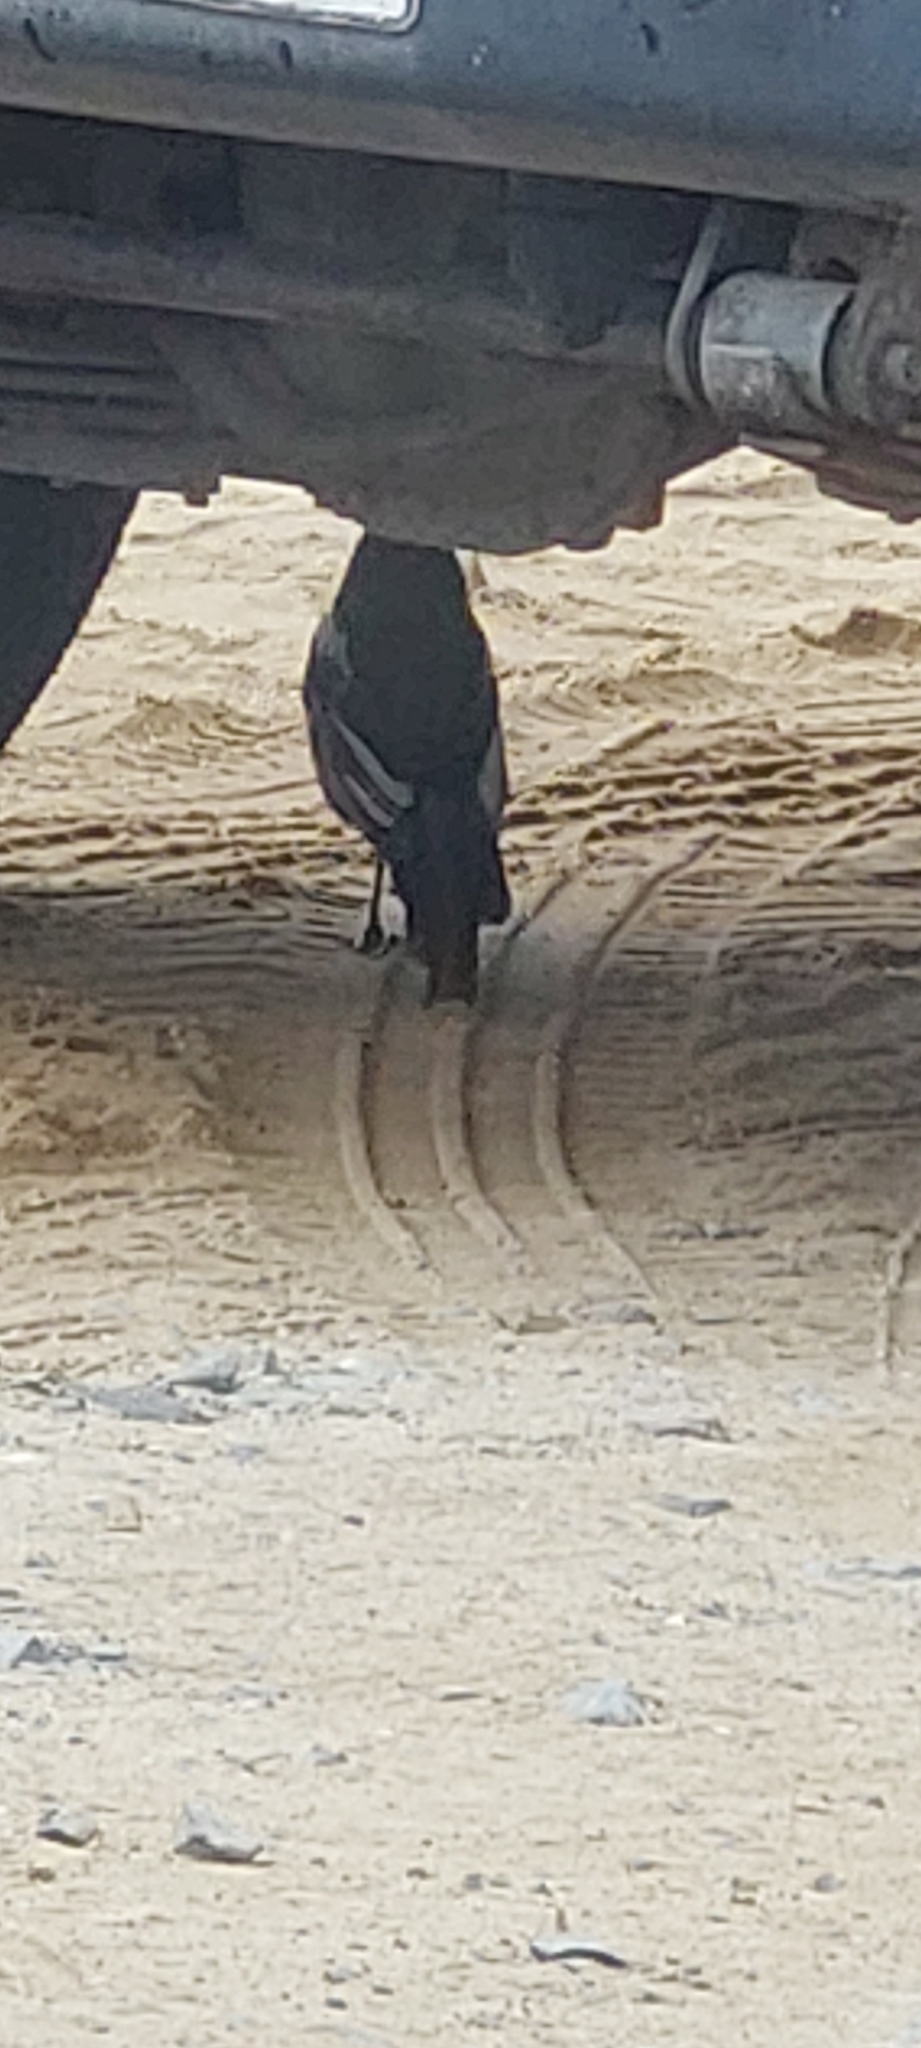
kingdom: Animalia
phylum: Chordata
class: Aves
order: Passeriformes
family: Corvidae
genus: Pica
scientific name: Pica pica
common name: Eurasian magpie
